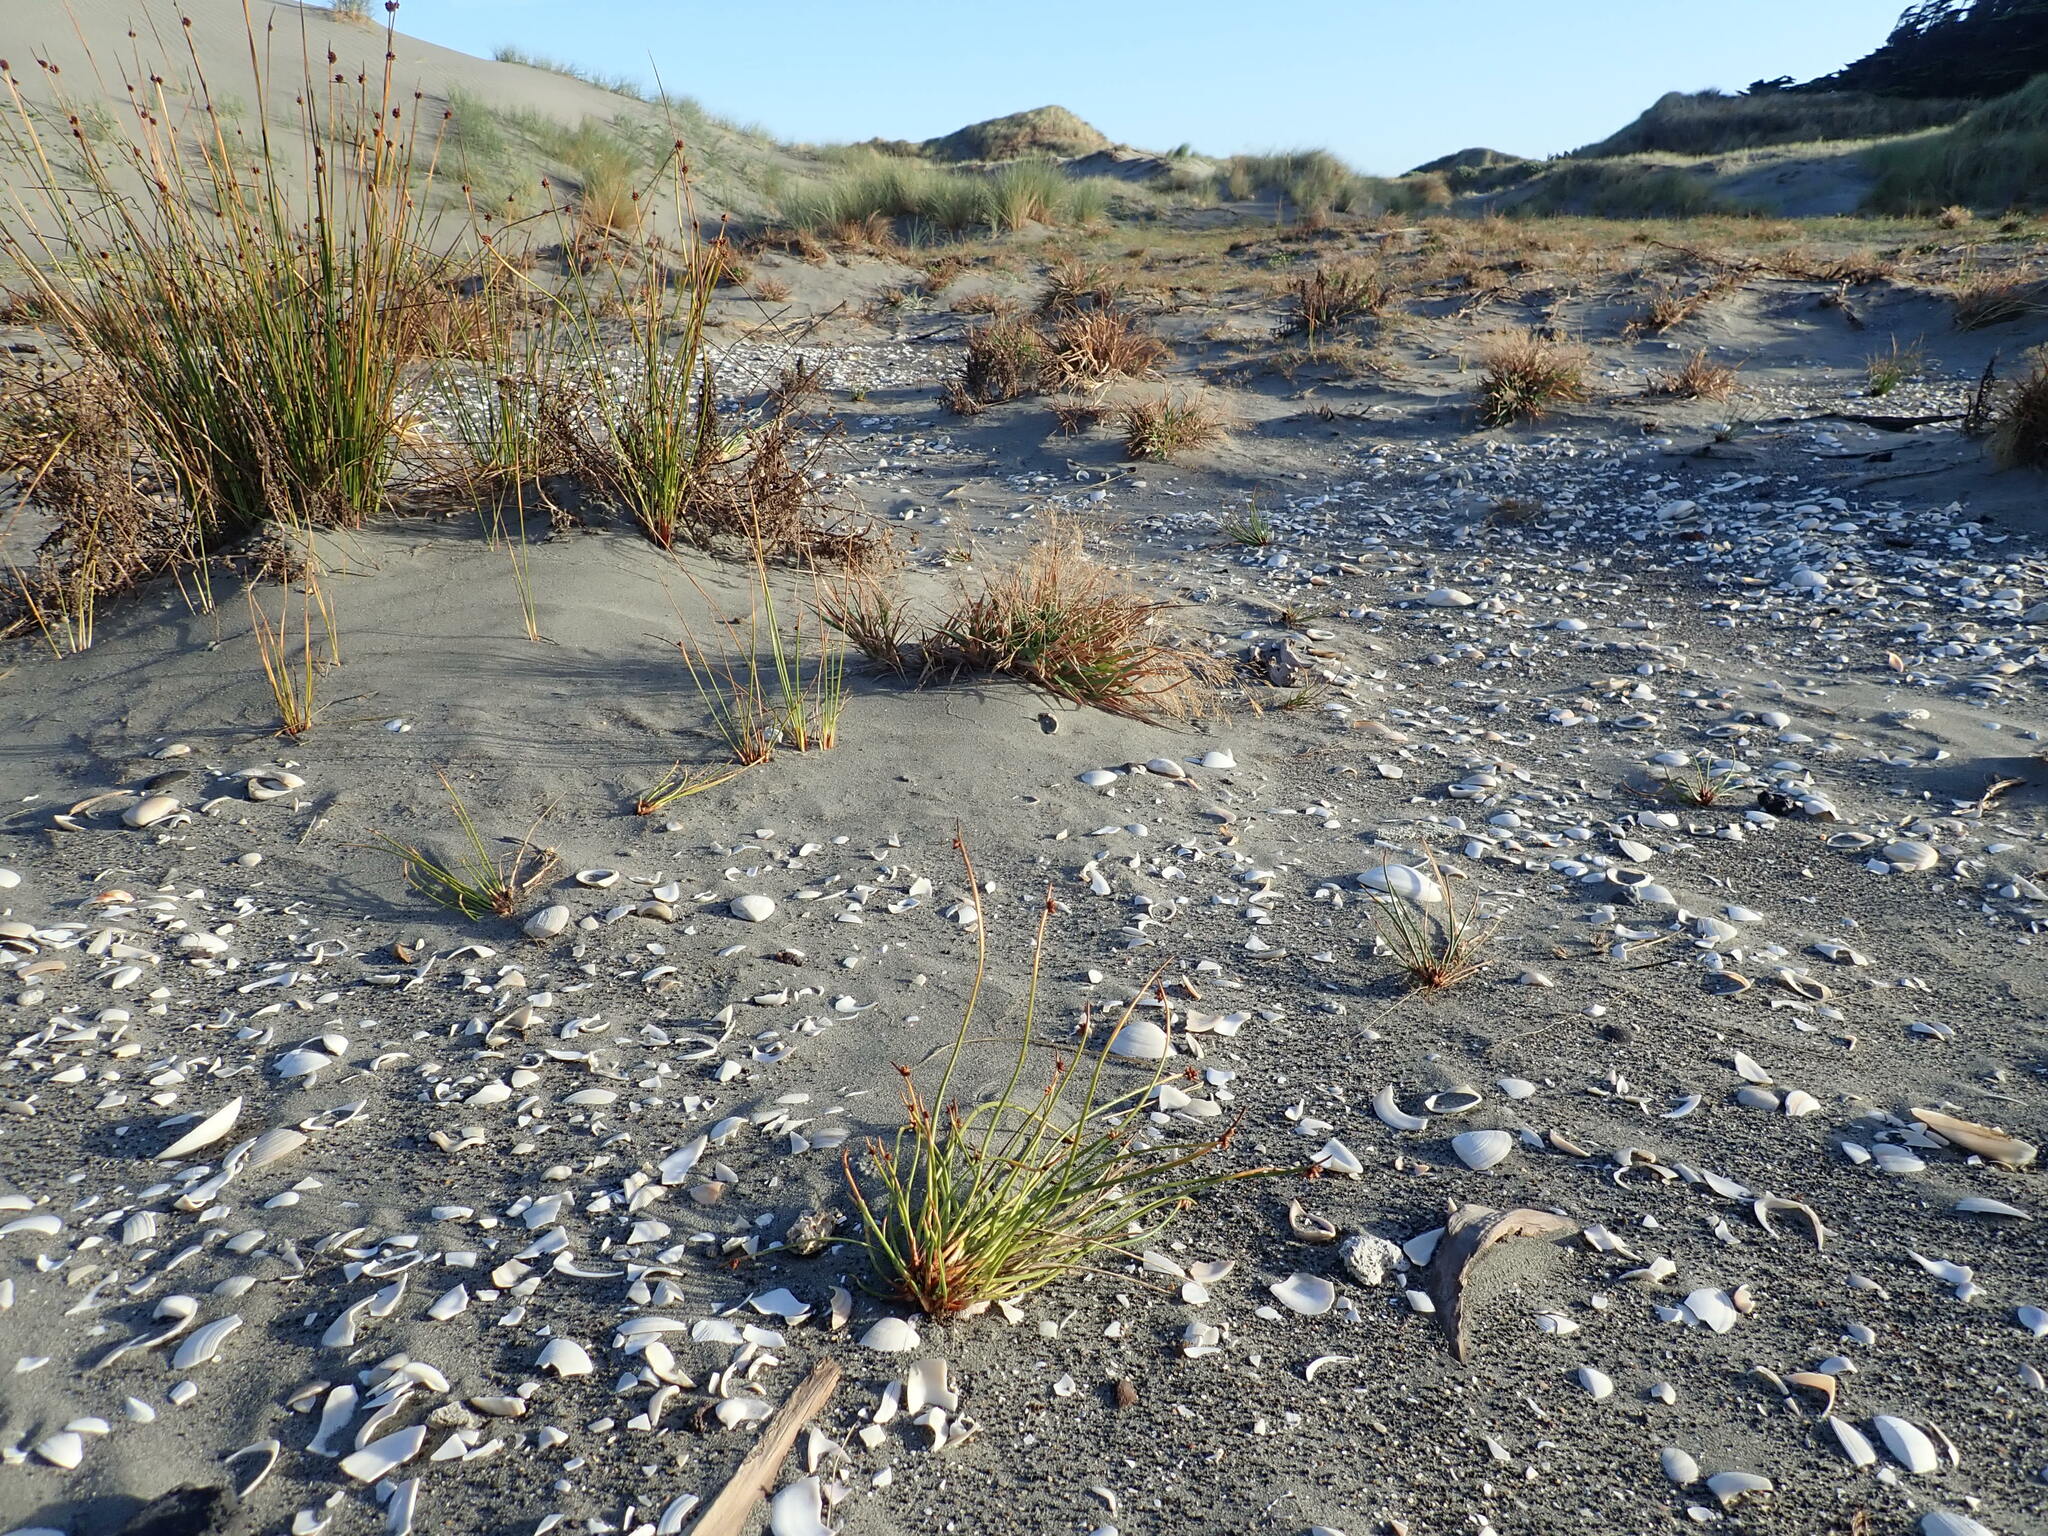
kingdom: Plantae
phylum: Tracheophyta
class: Liliopsida
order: Poales
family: Cyperaceae
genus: Ficinia
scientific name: Ficinia nodosa
